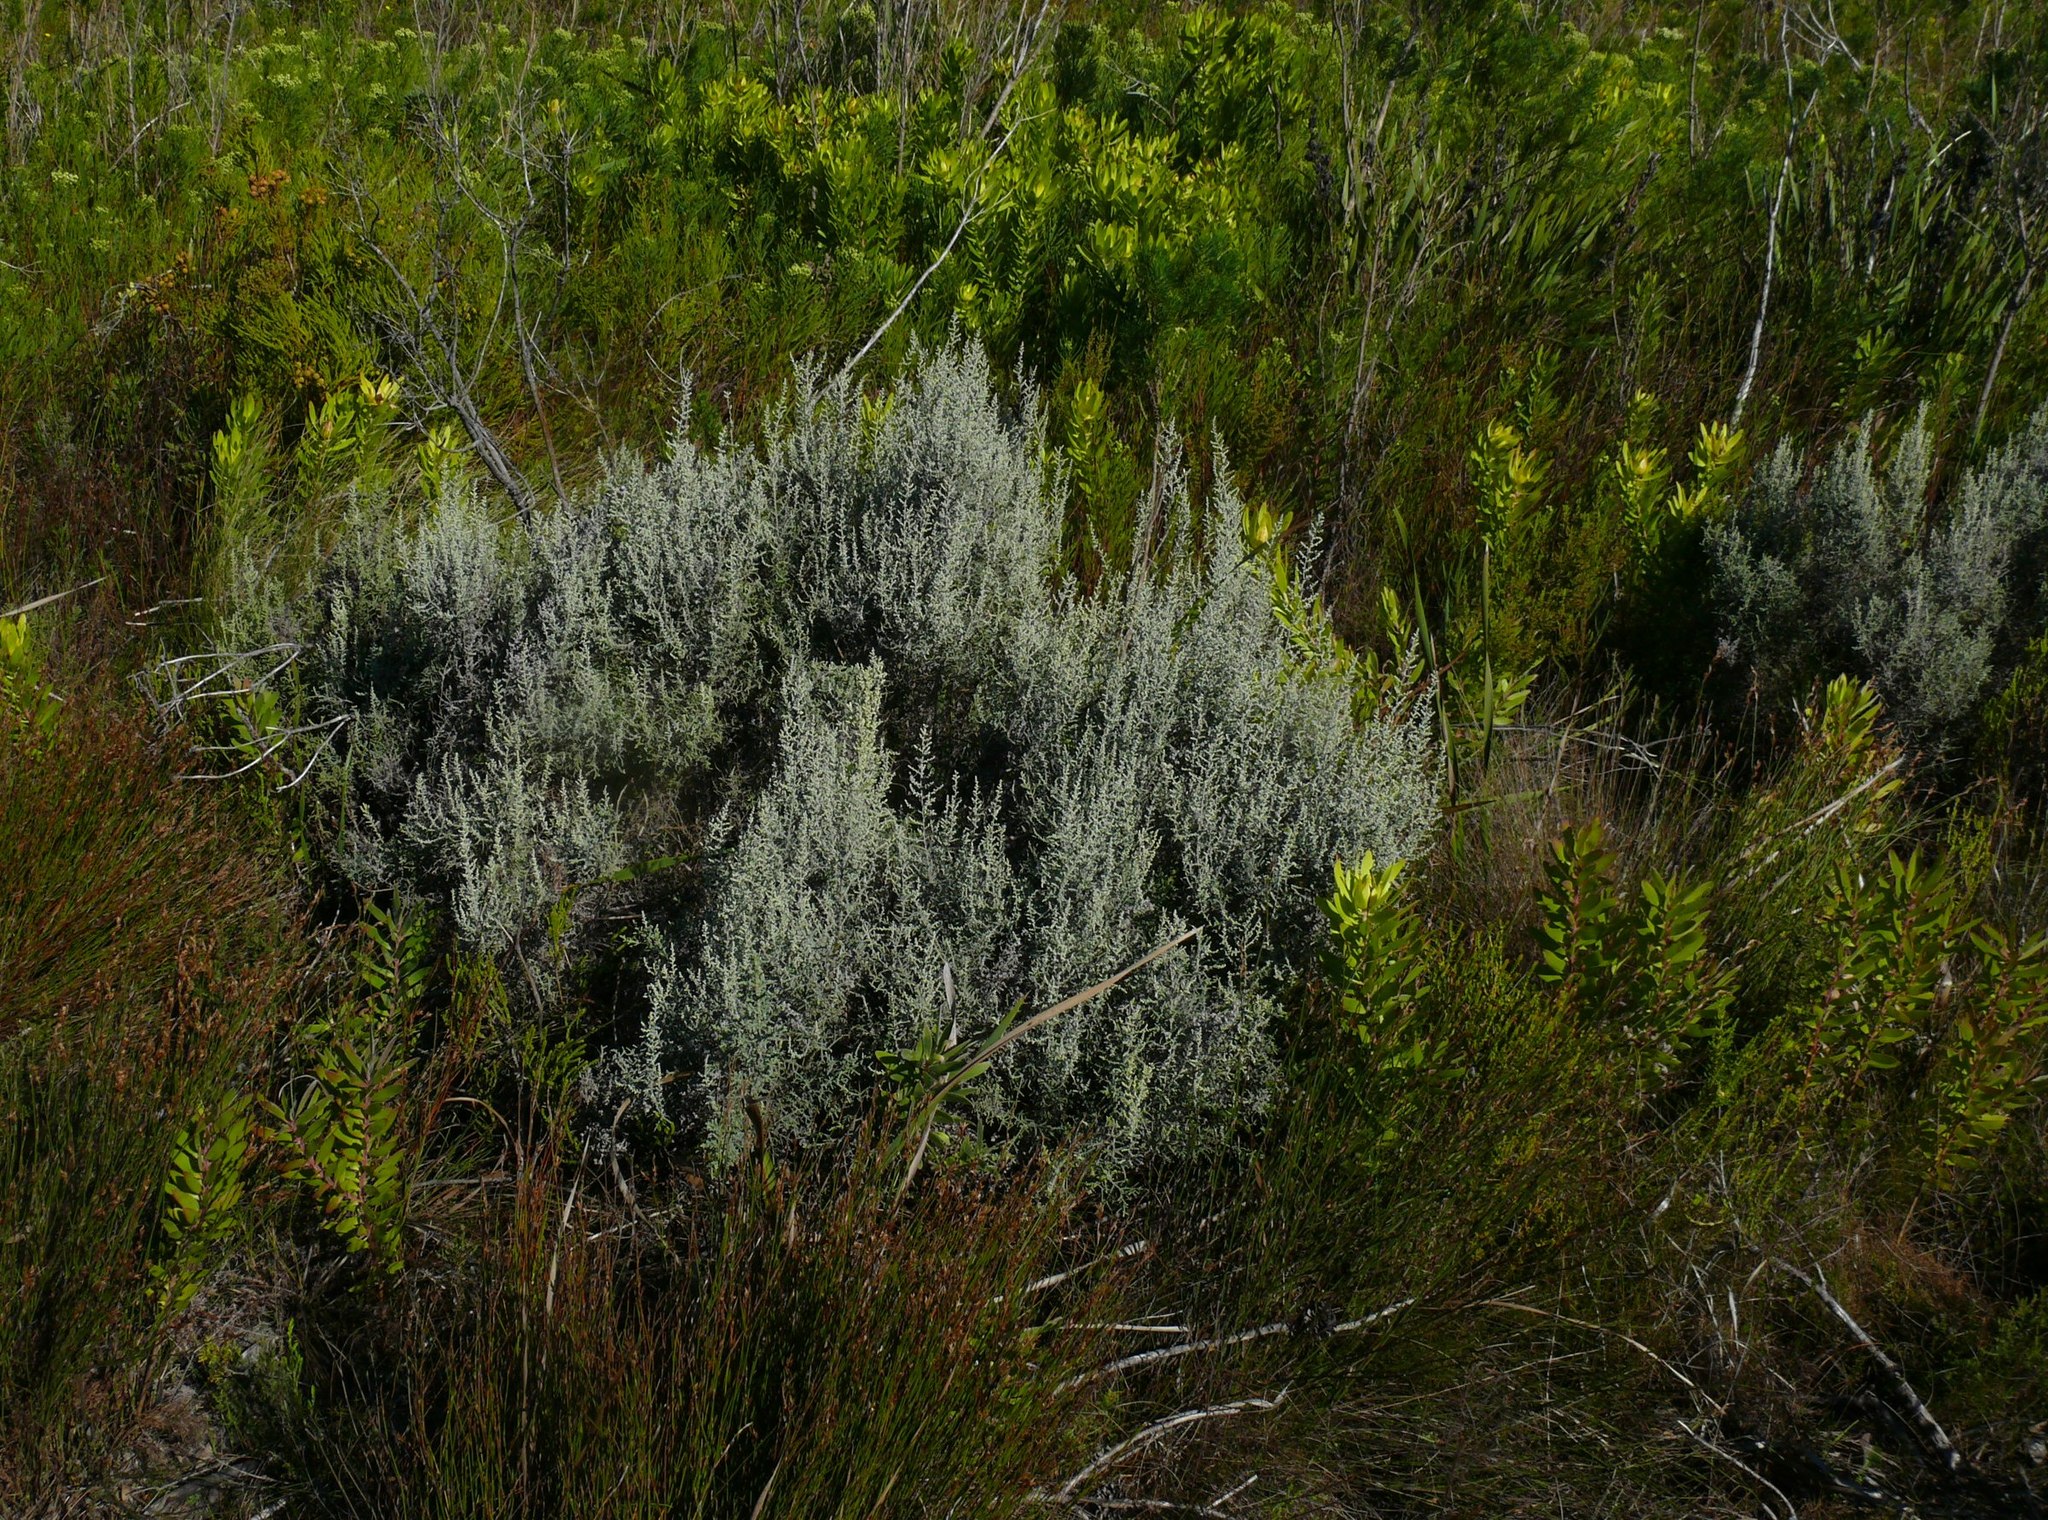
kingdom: Plantae
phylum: Tracheophyta
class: Magnoliopsida
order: Asterales
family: Asteraceae
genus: Seriphium
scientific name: Seriphium plumosum
